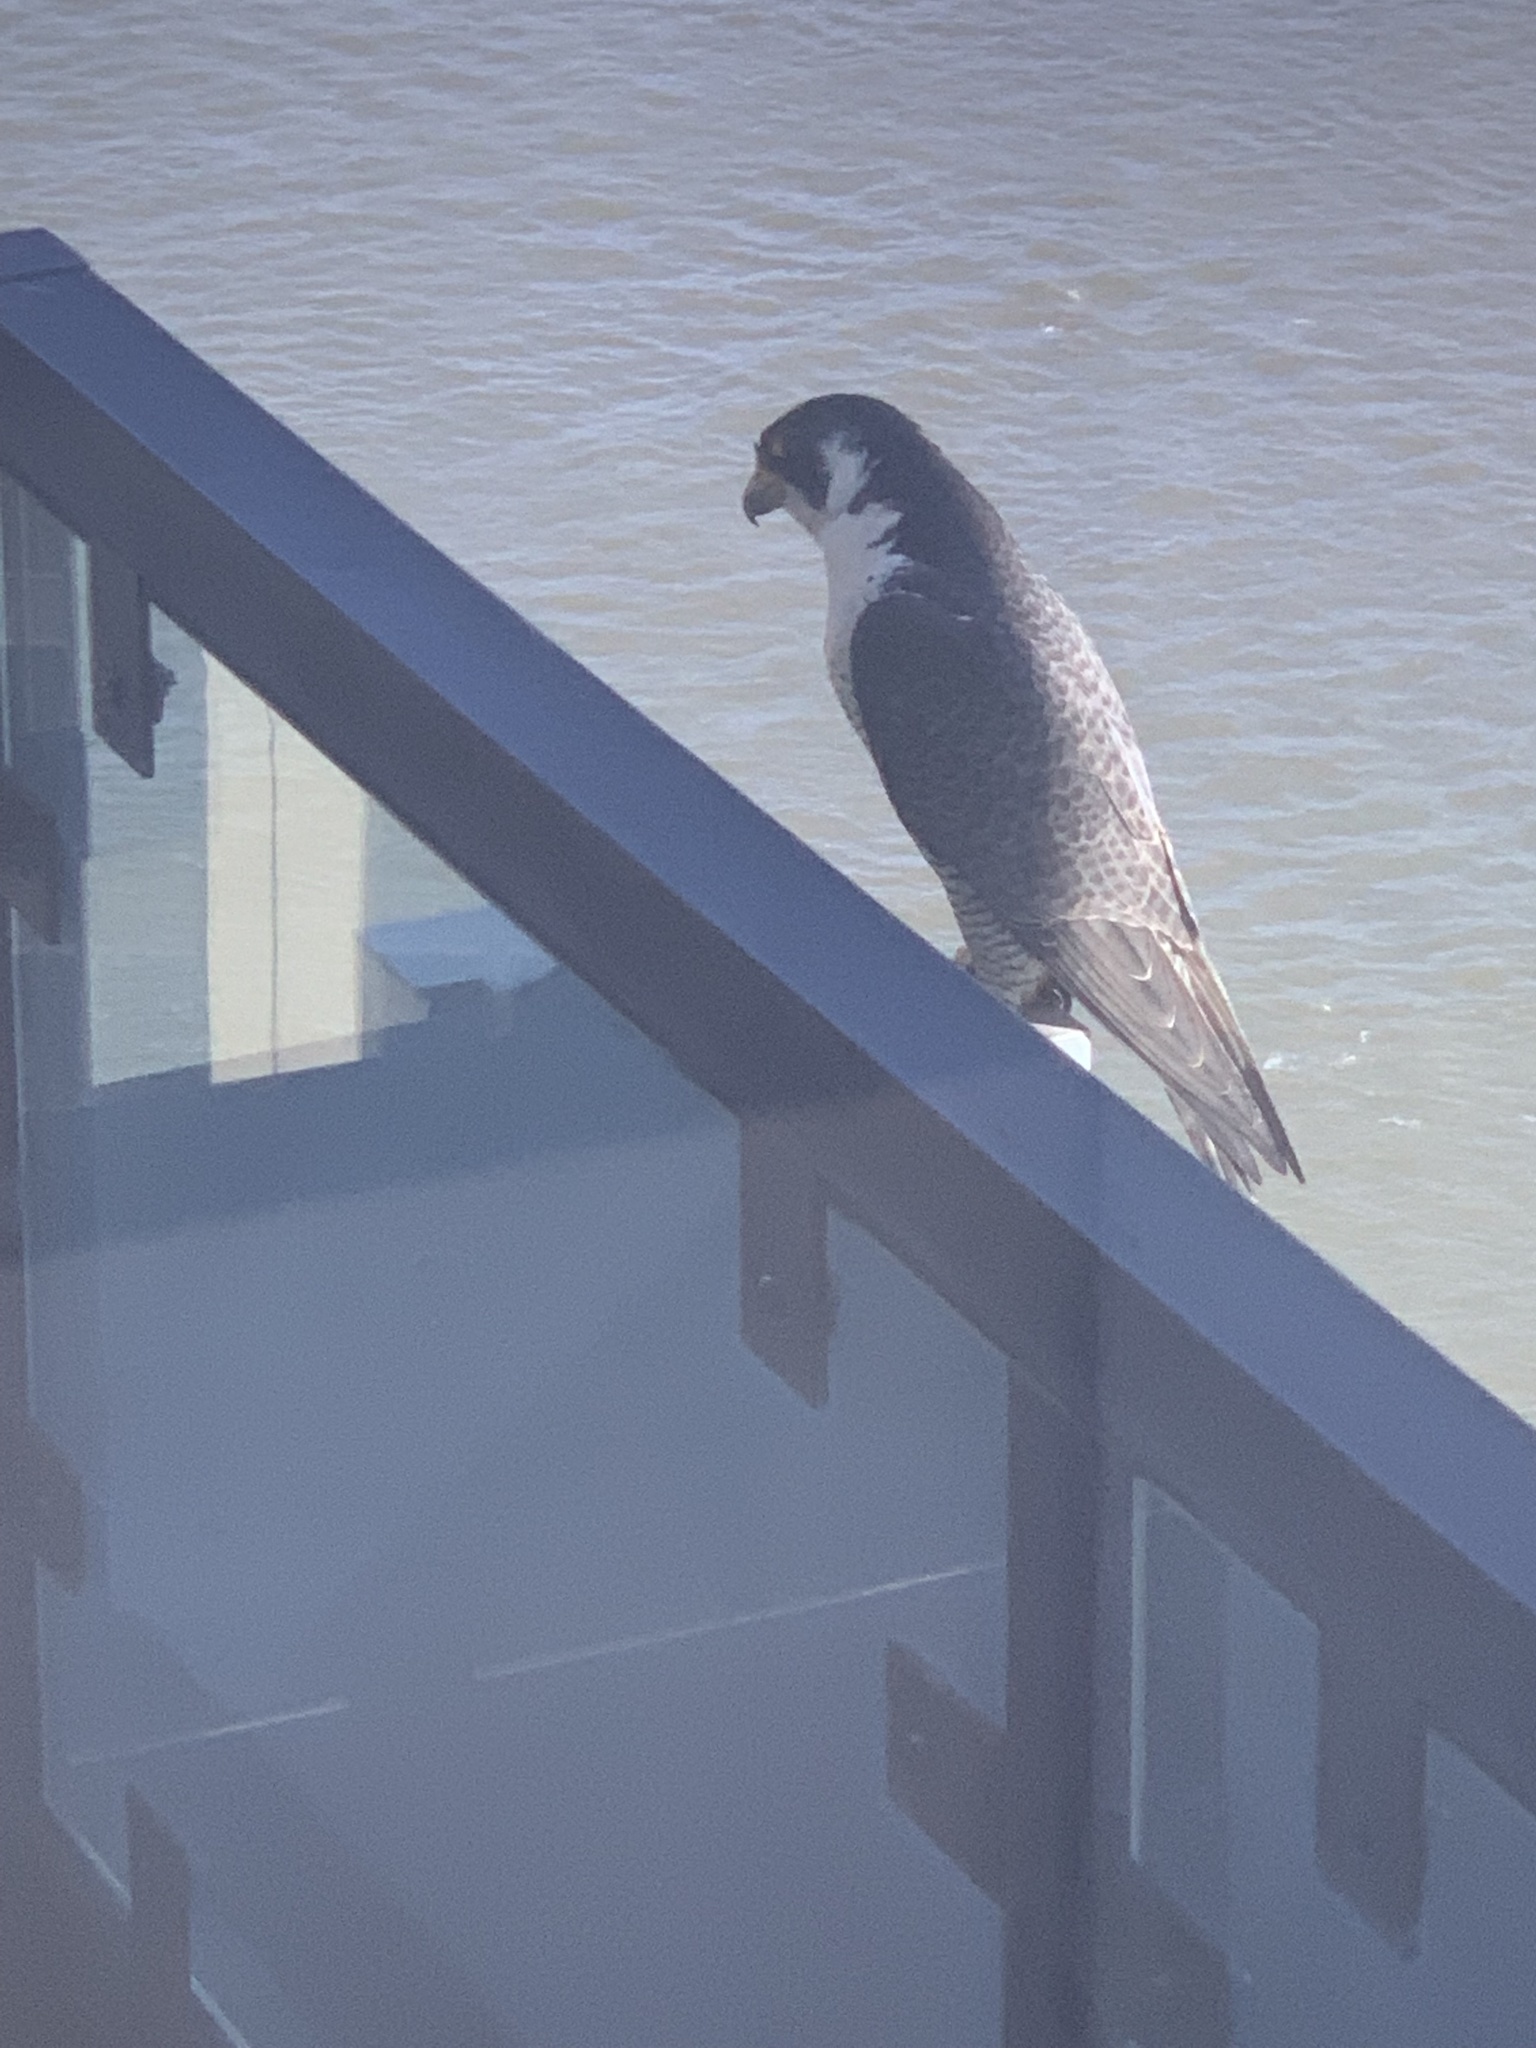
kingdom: Animalia
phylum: Chordata
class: Aves
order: Falconiformes
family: Falconidae
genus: Falco
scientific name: Falco peregrinus
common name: Peregrine falcon
